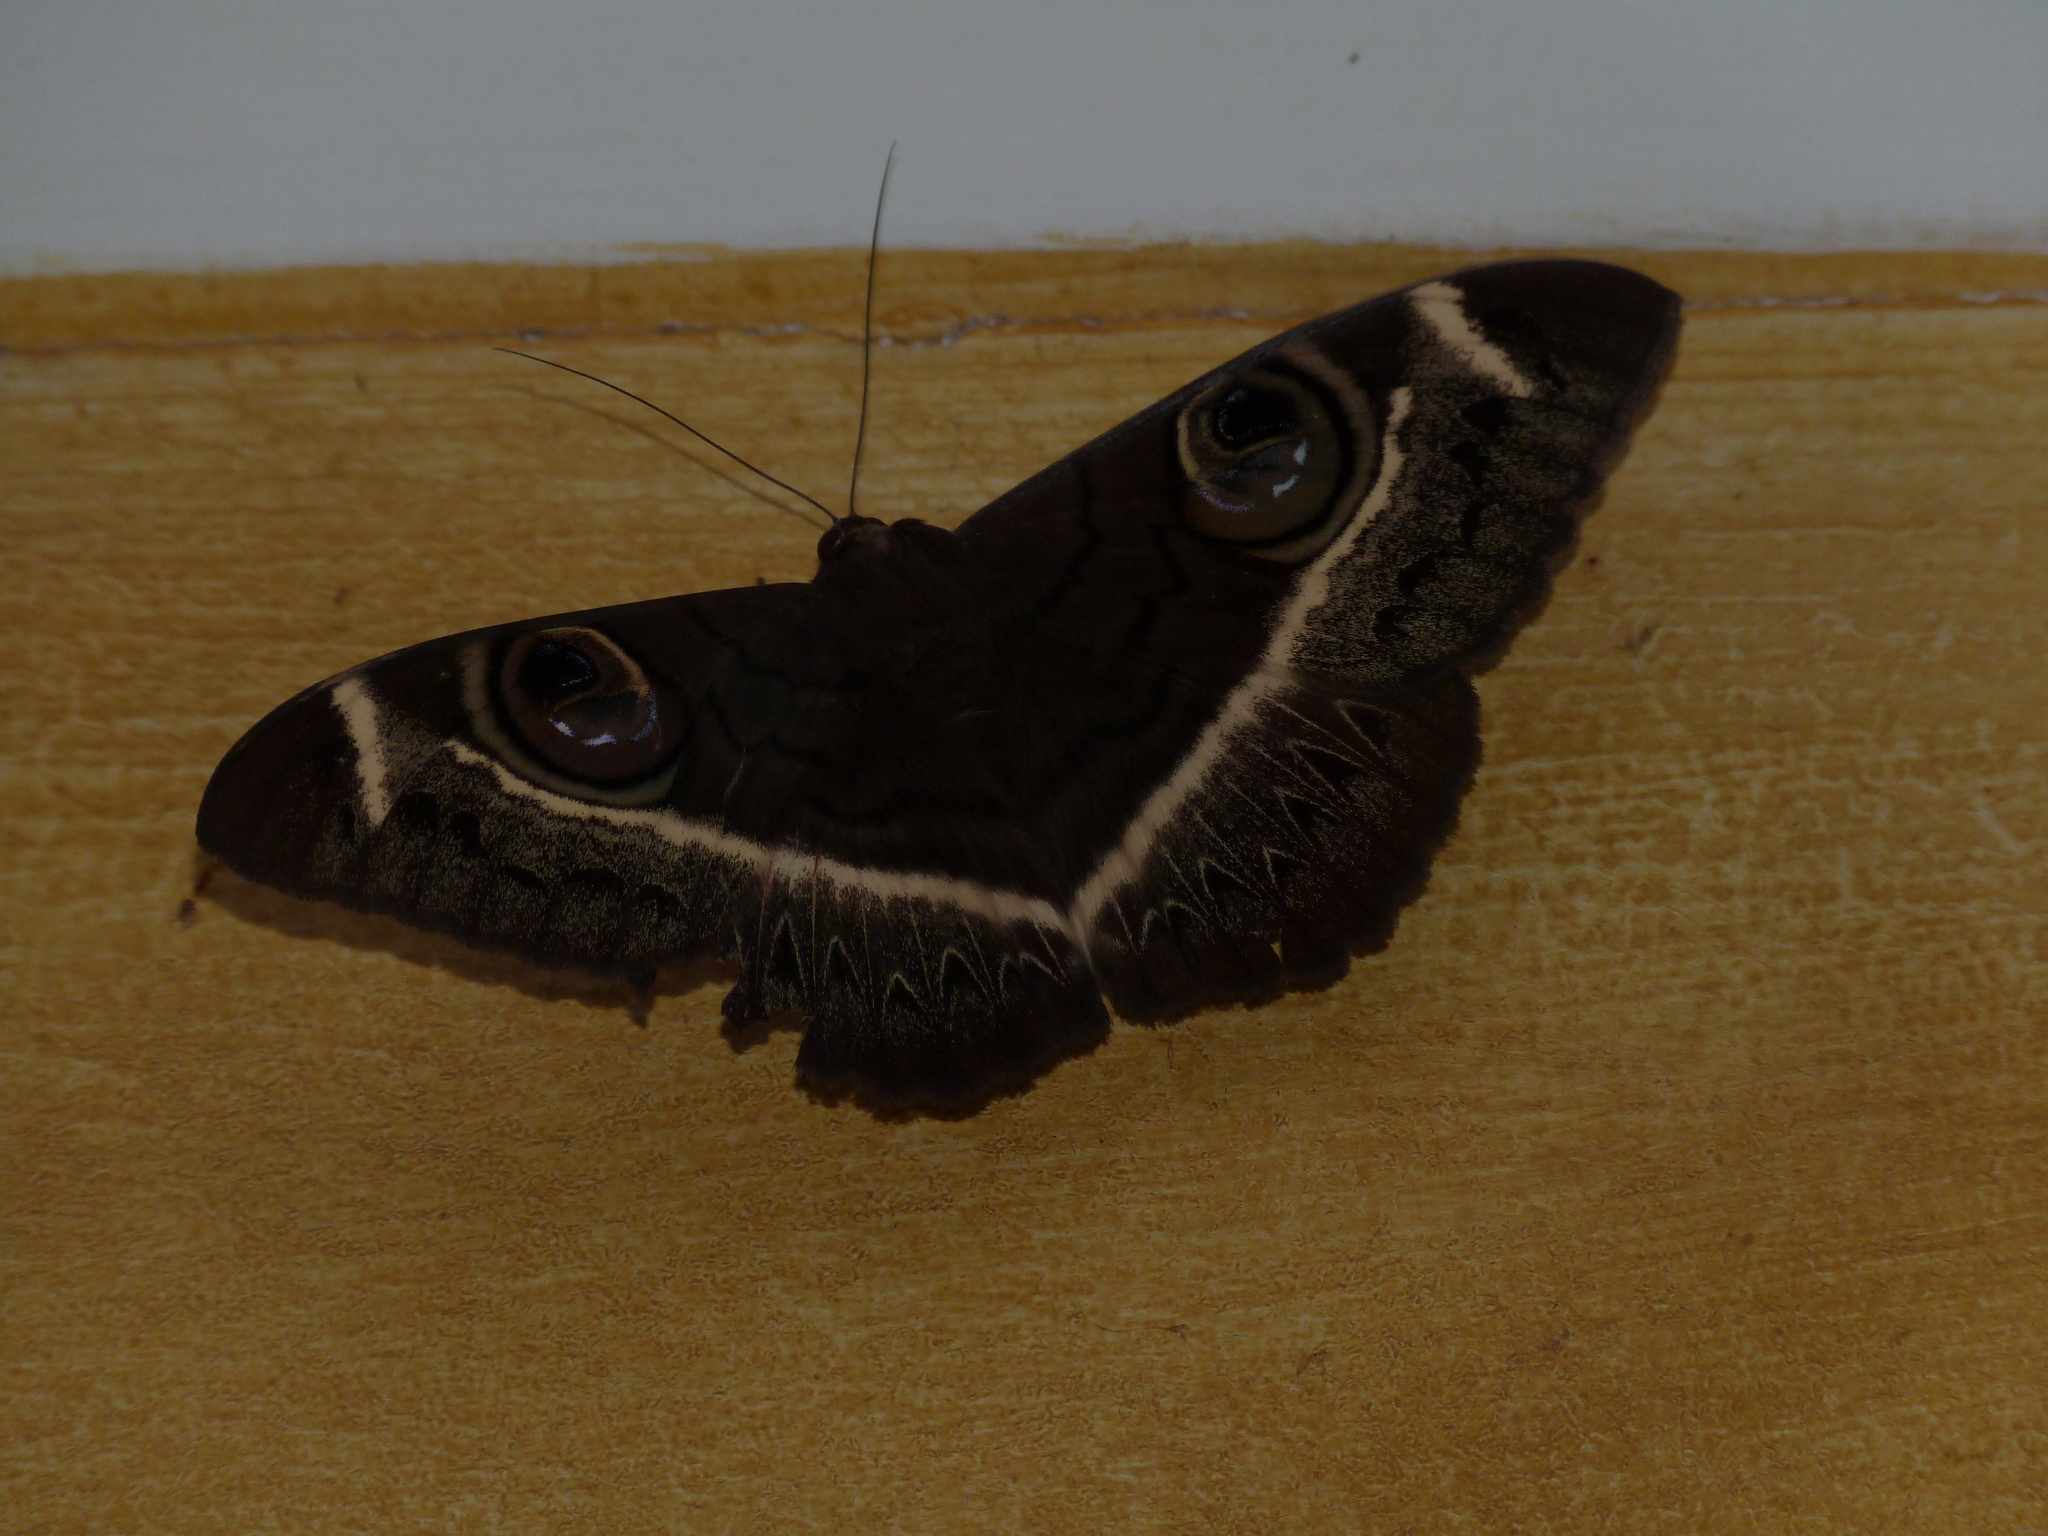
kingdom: Animalia
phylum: Arthropoda
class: Insecta
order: Lepidoptera
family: Erebidae
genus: Cyligramma
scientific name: Cyligramma latona
